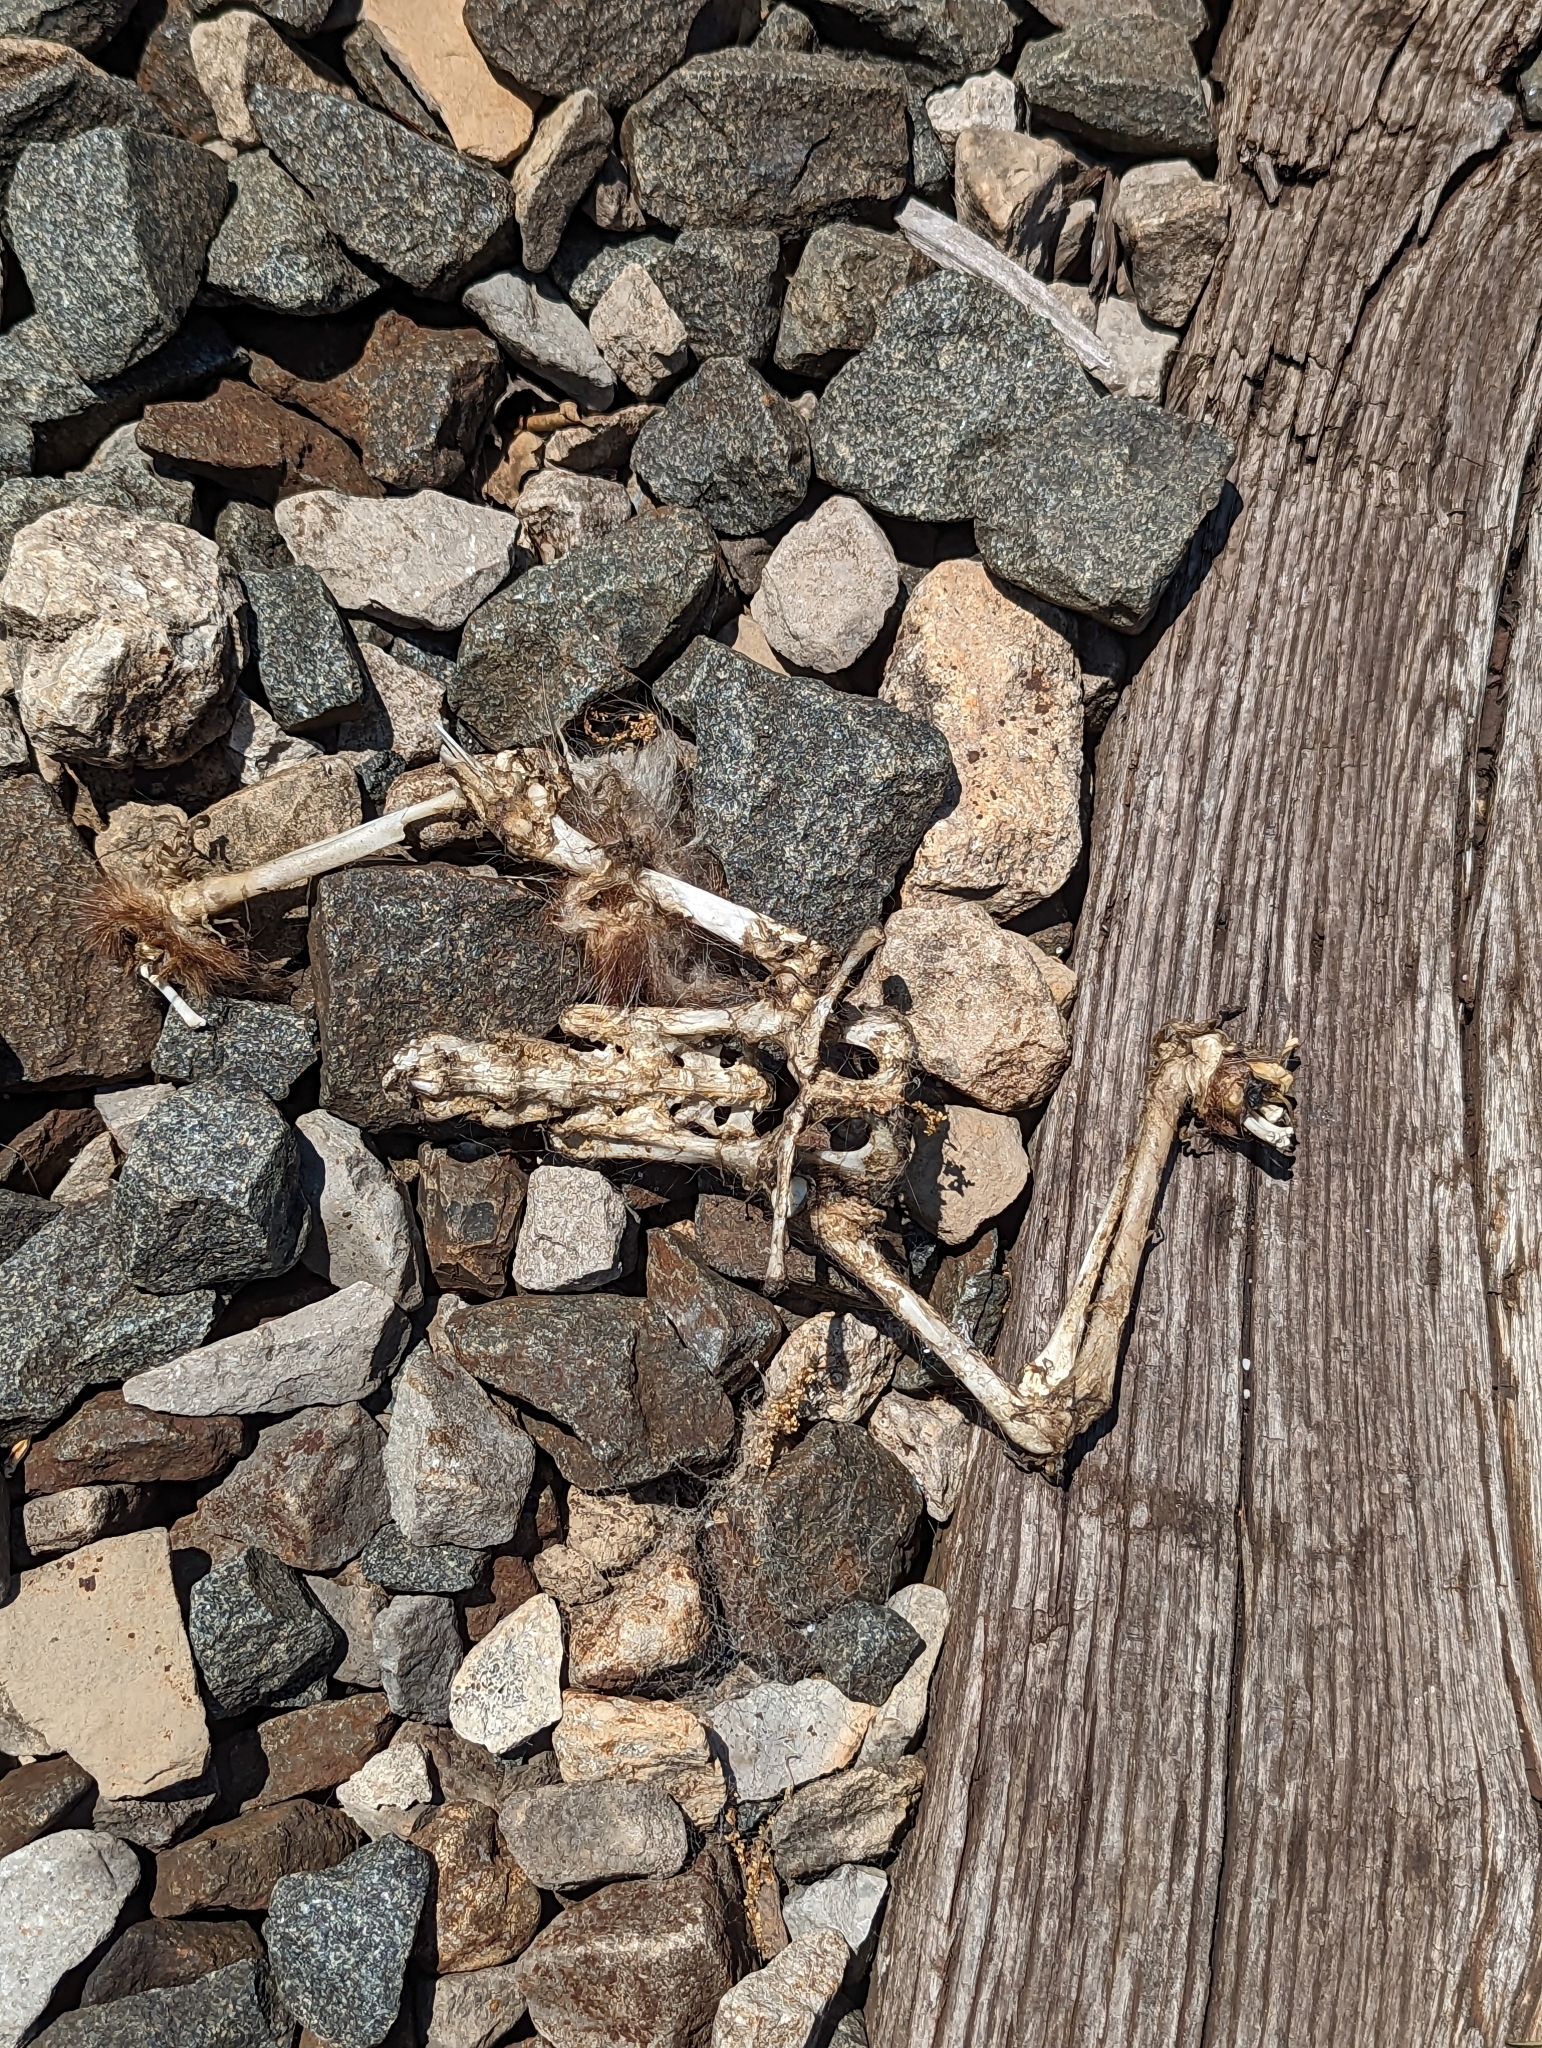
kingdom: Animalia
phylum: Chordata
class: Mammalia
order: Didelphimorphia
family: Didelphidae
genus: Didelphis
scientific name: Didelphis virginiana
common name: Virginia opossum
